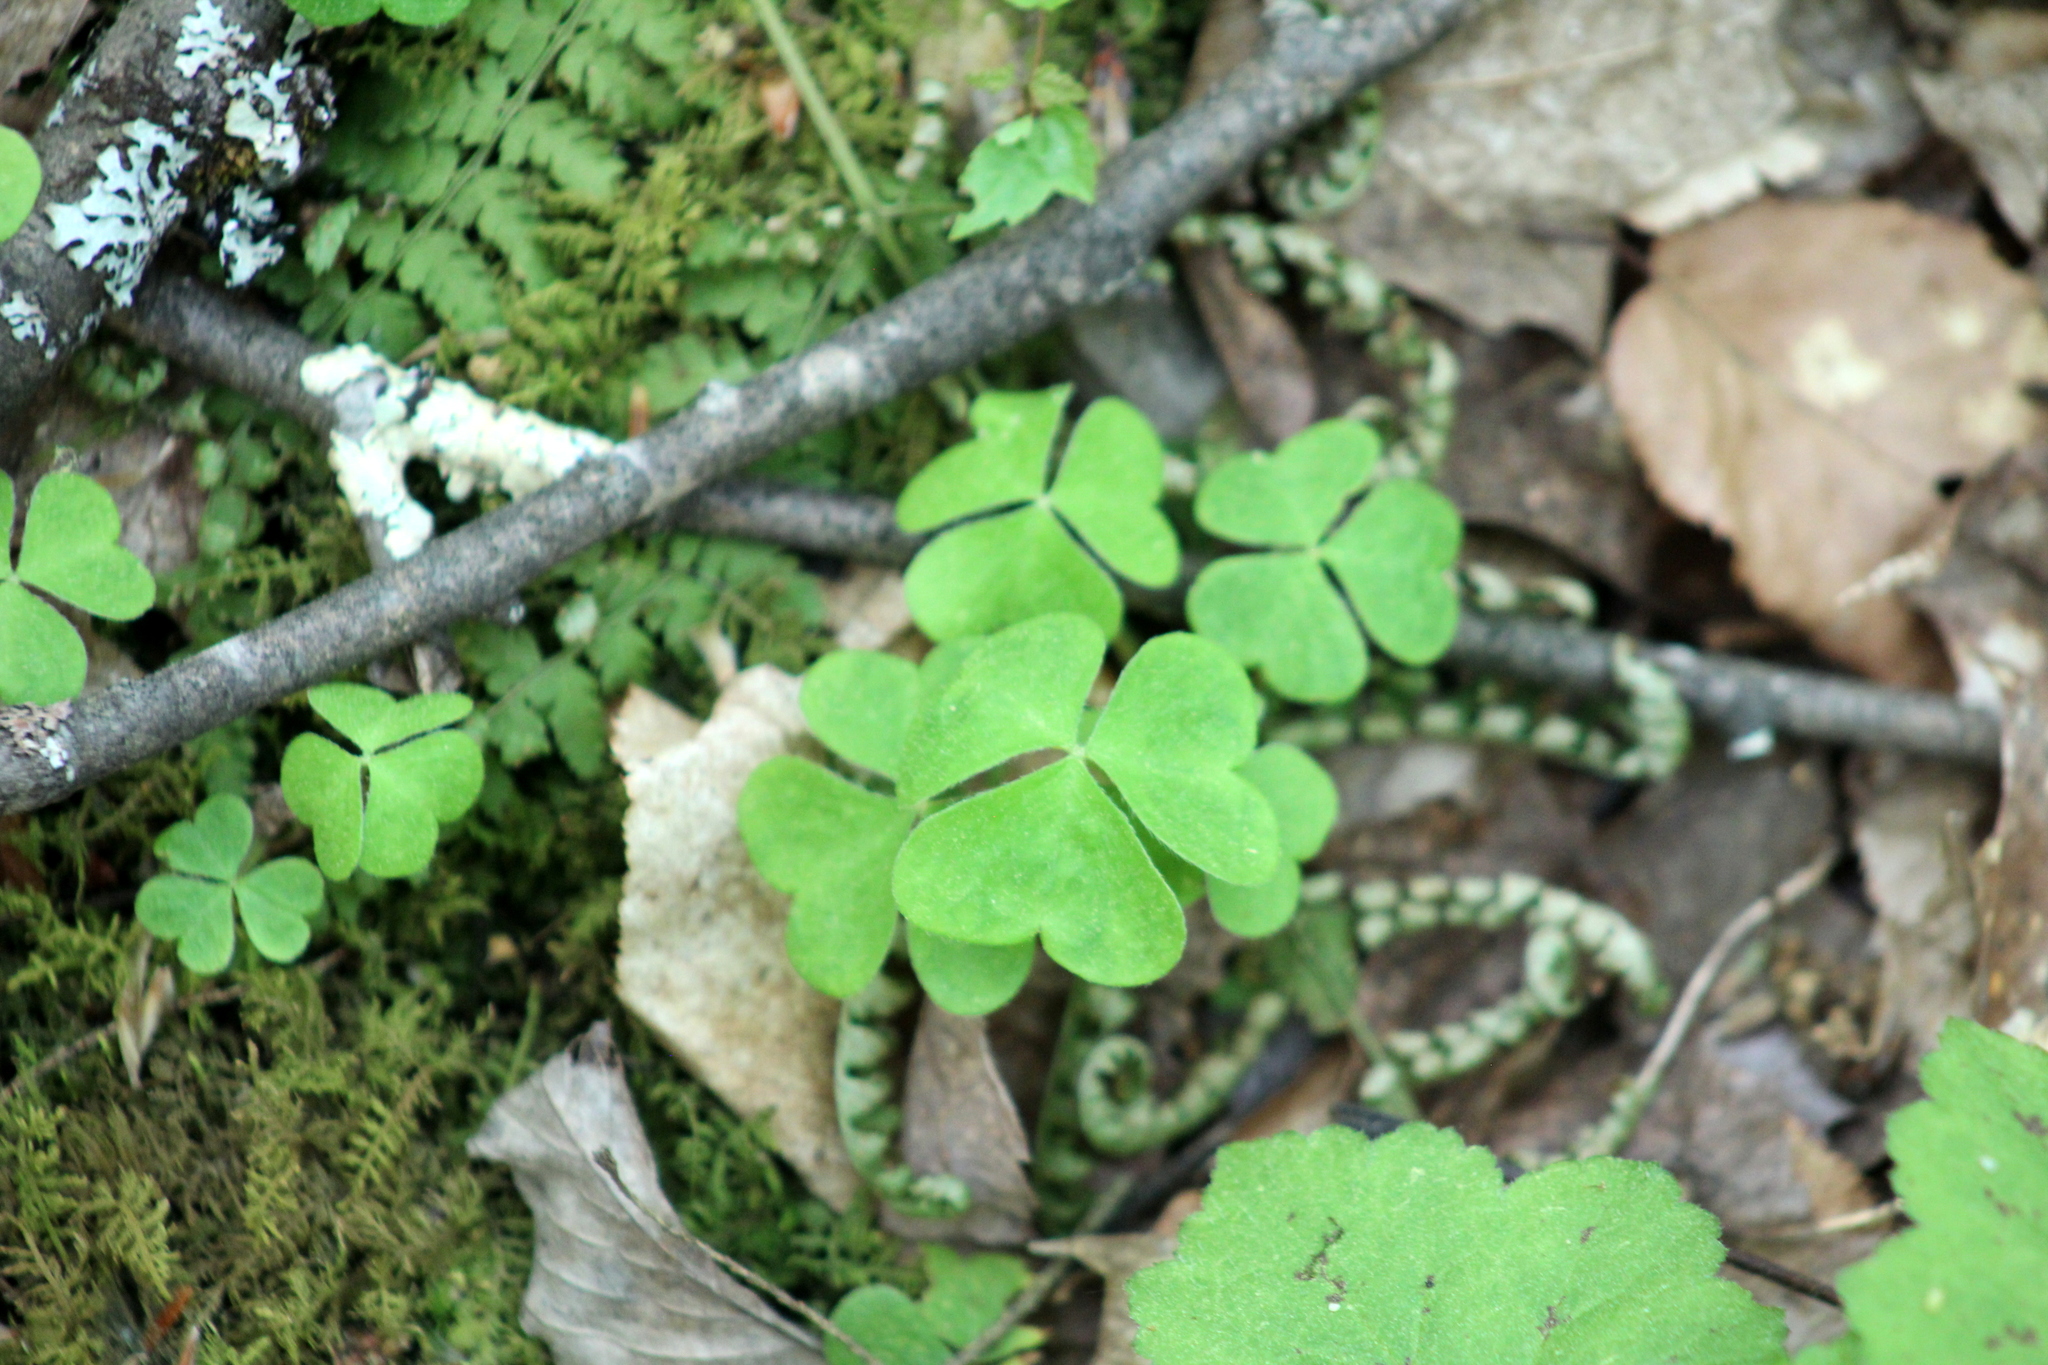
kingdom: Plantae
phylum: Tracheophyta
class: Magnoliopsida
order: Oxalidales
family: Oxalidaceae
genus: Oxalis
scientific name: Oxalis montana
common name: American wood-sorrel
